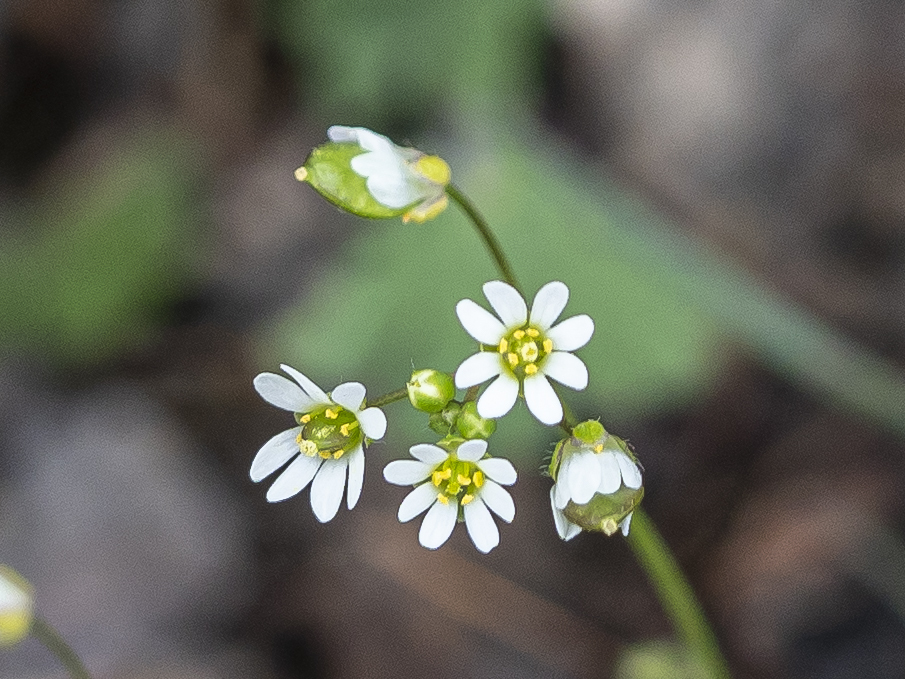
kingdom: Plantae
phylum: Tracheophyta
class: Magnoliopsida
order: Brassicales
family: Brassicaceae
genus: Draba
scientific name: Draba verna
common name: Spring draba
